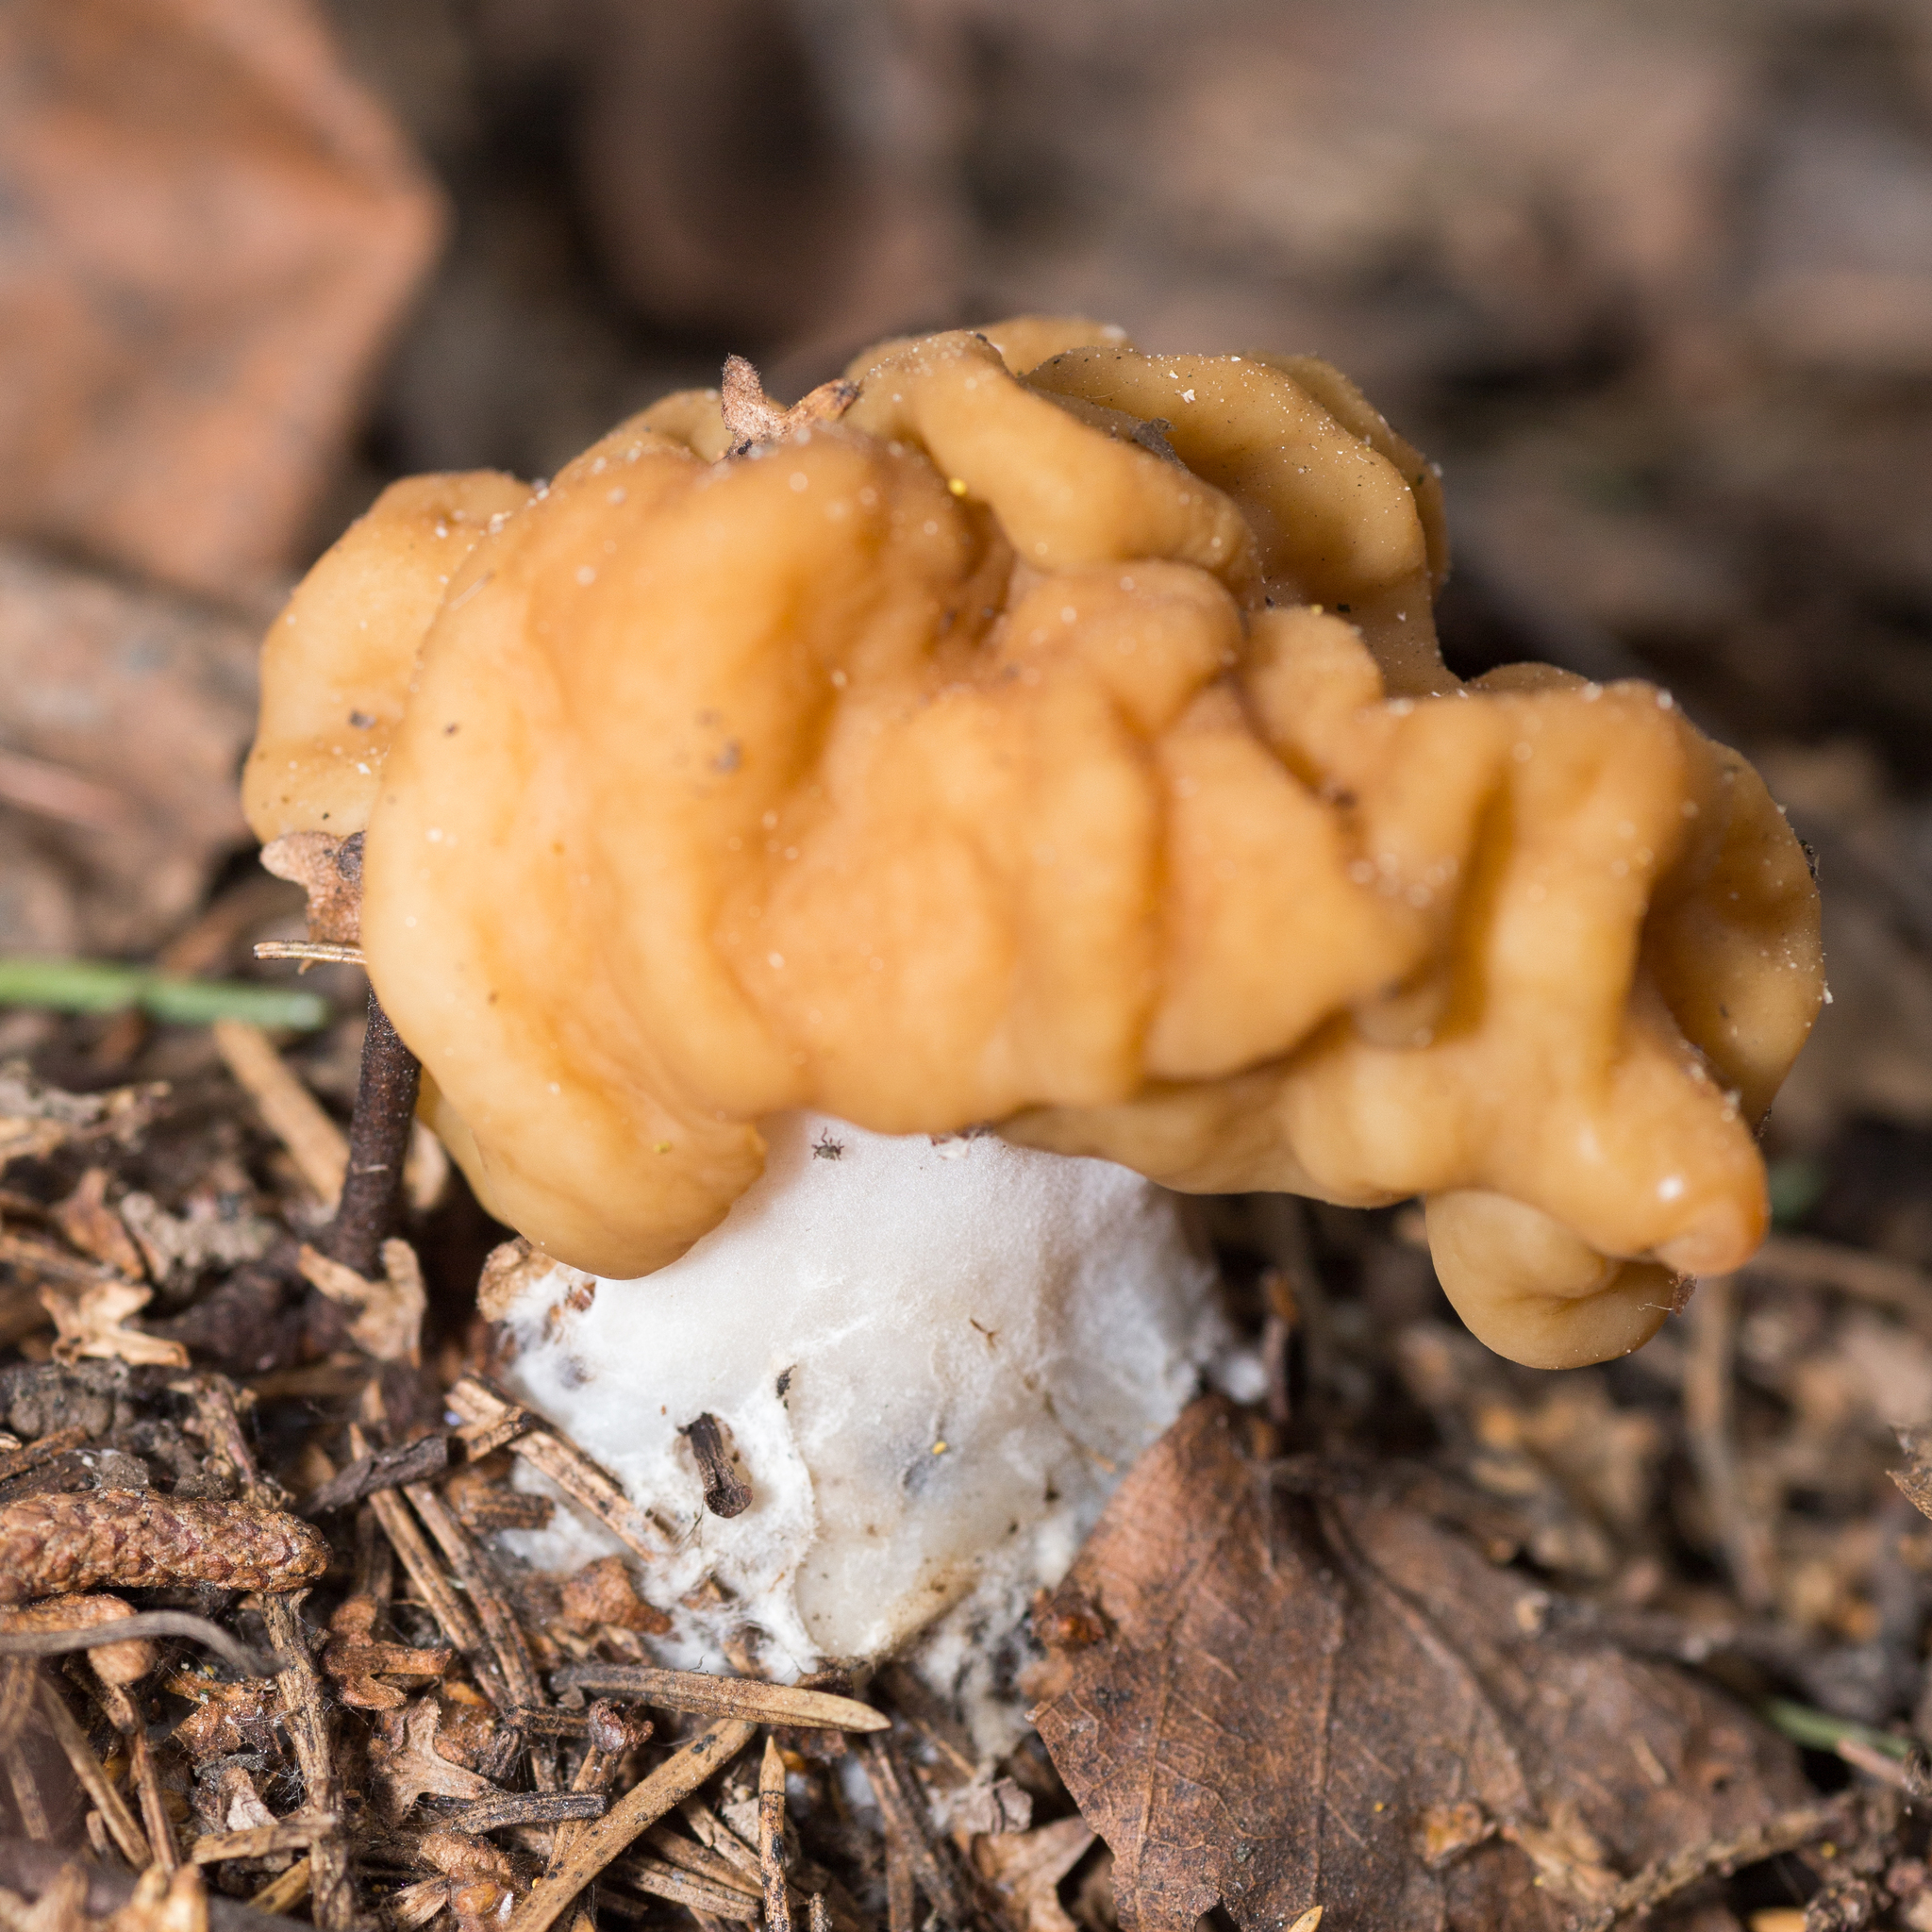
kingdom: Fungi
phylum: Ascomycota
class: Pezizomycetes
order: Pezizales
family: Discinaceae
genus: Gyromitra
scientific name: Gyromitra gigas
